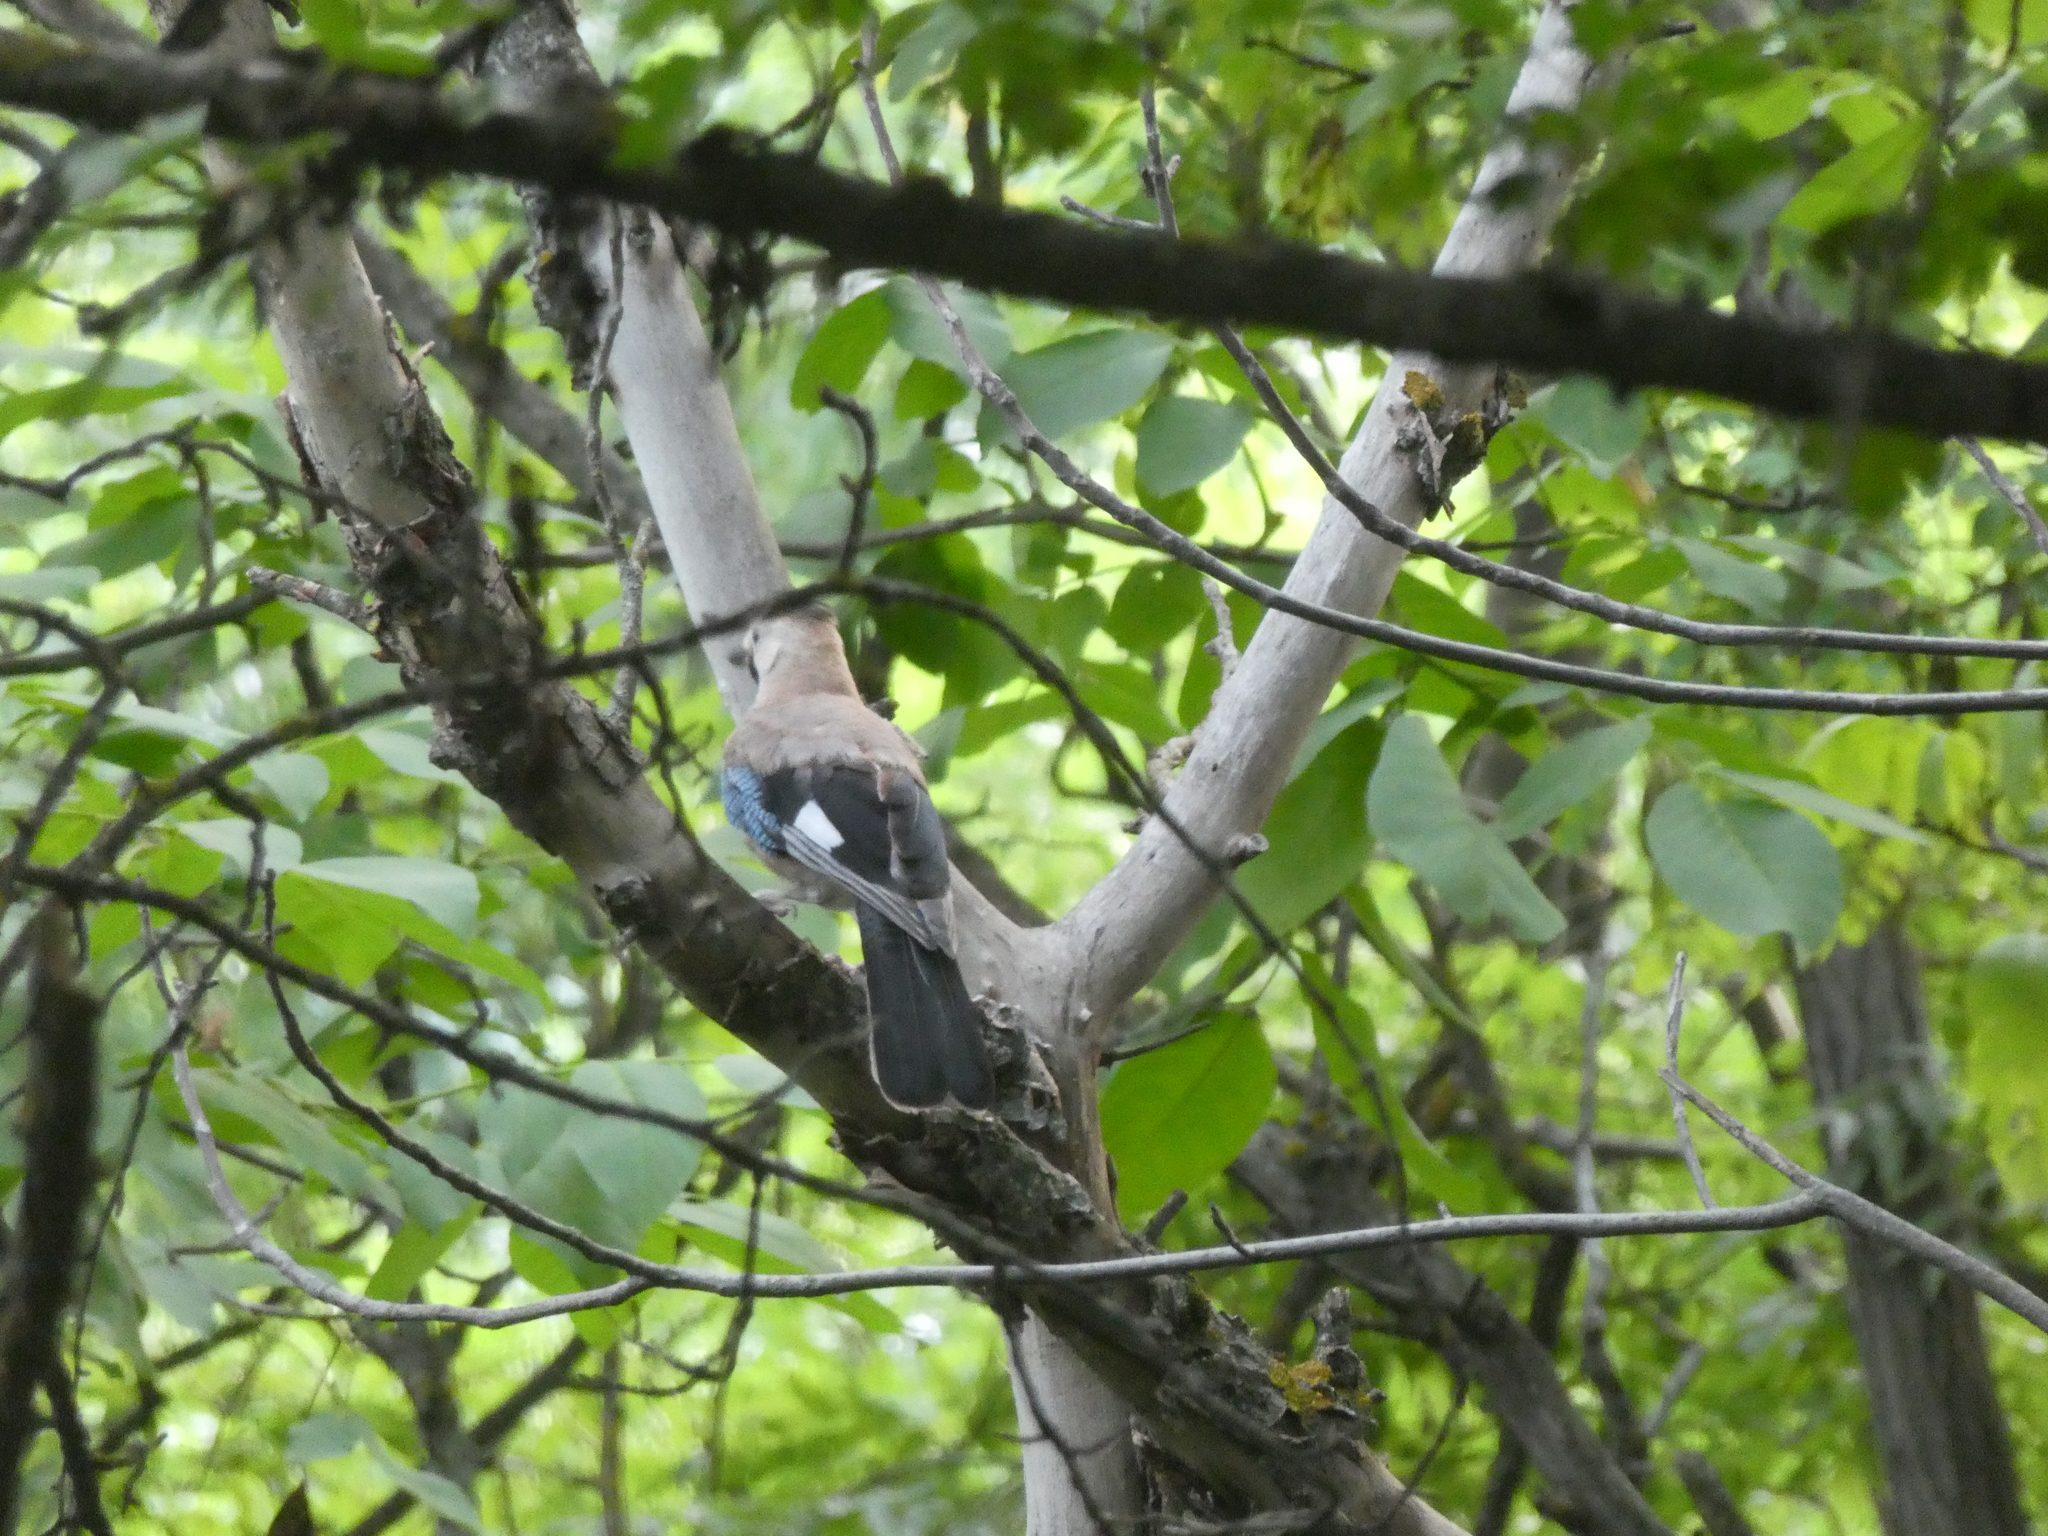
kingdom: Animalia
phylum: Chordata
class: Aves
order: Passeriformes
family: Corvidae
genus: Garrulus
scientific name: Garrulus glandarius
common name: Eurasian jay
